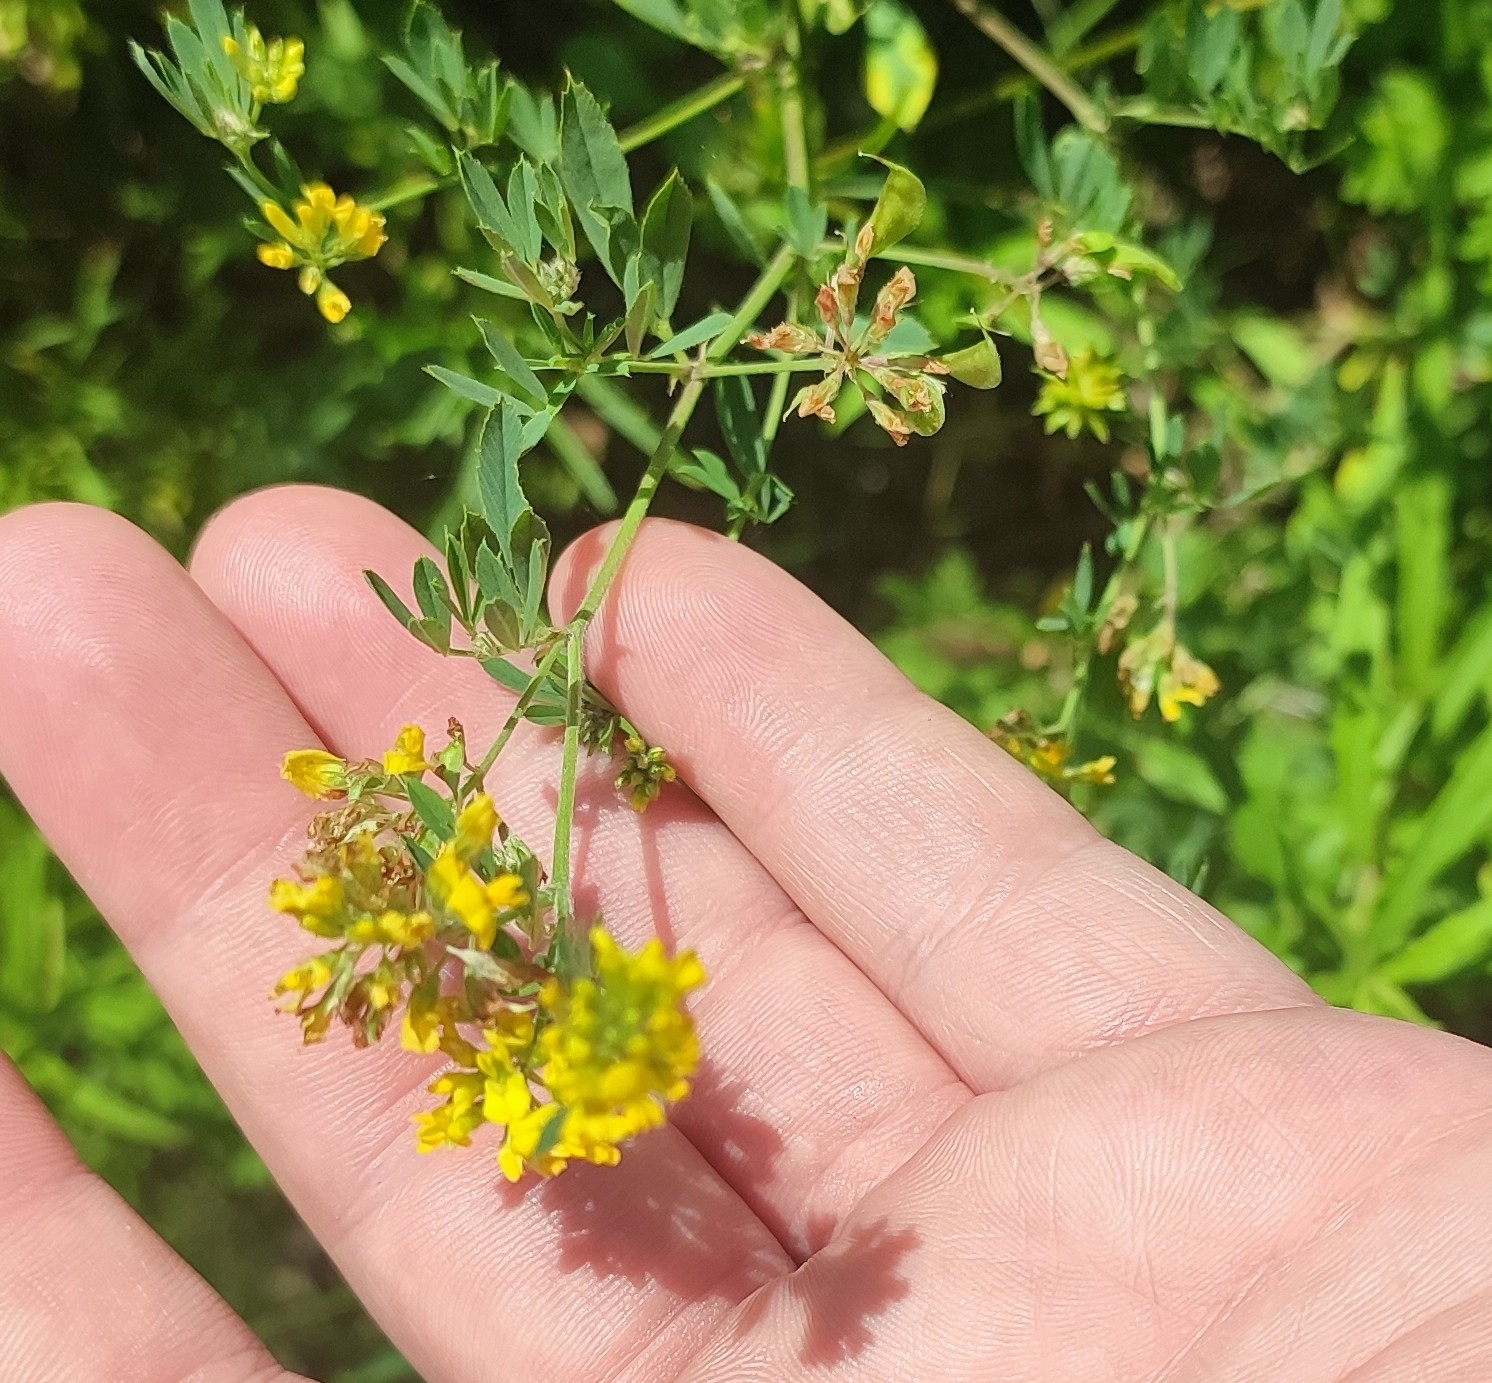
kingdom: Plantae
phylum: Tracheophyta
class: Magnoliopsida
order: Fabales
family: Fabaceae
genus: Medicago
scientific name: Medicago falcata
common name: Sickle medick
